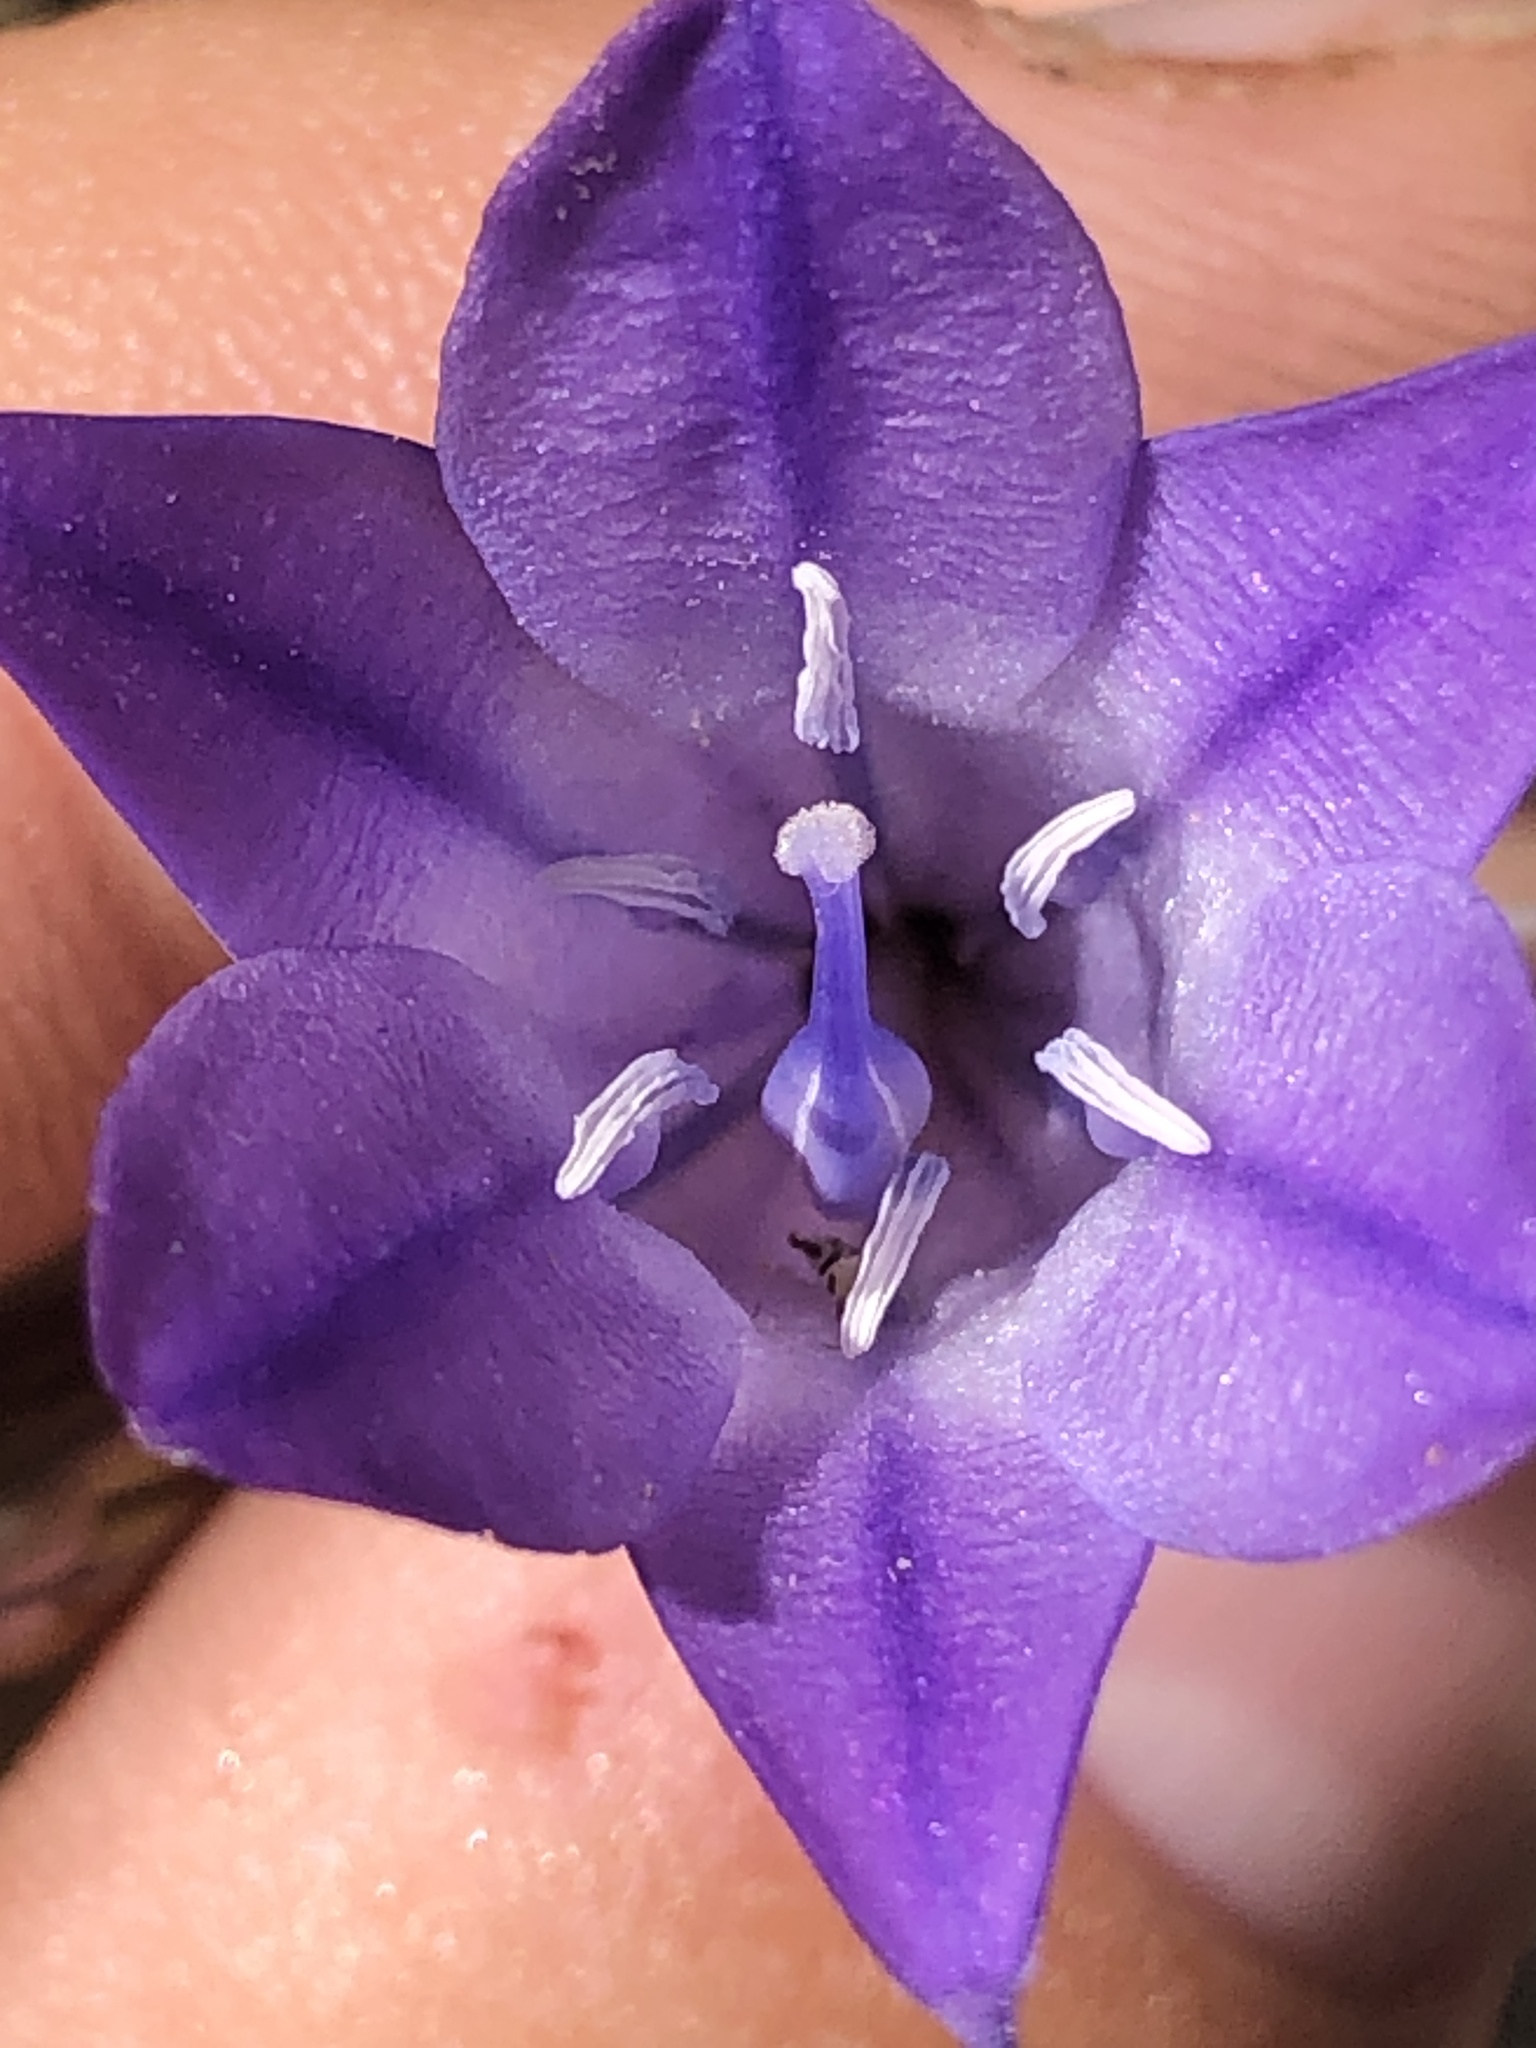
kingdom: Plantae
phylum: Tracheophyta
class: Liliopsida
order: Asparagales
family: Asparagaceae
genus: Triteleia
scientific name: Triteleia laxa
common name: Triplet-lily
